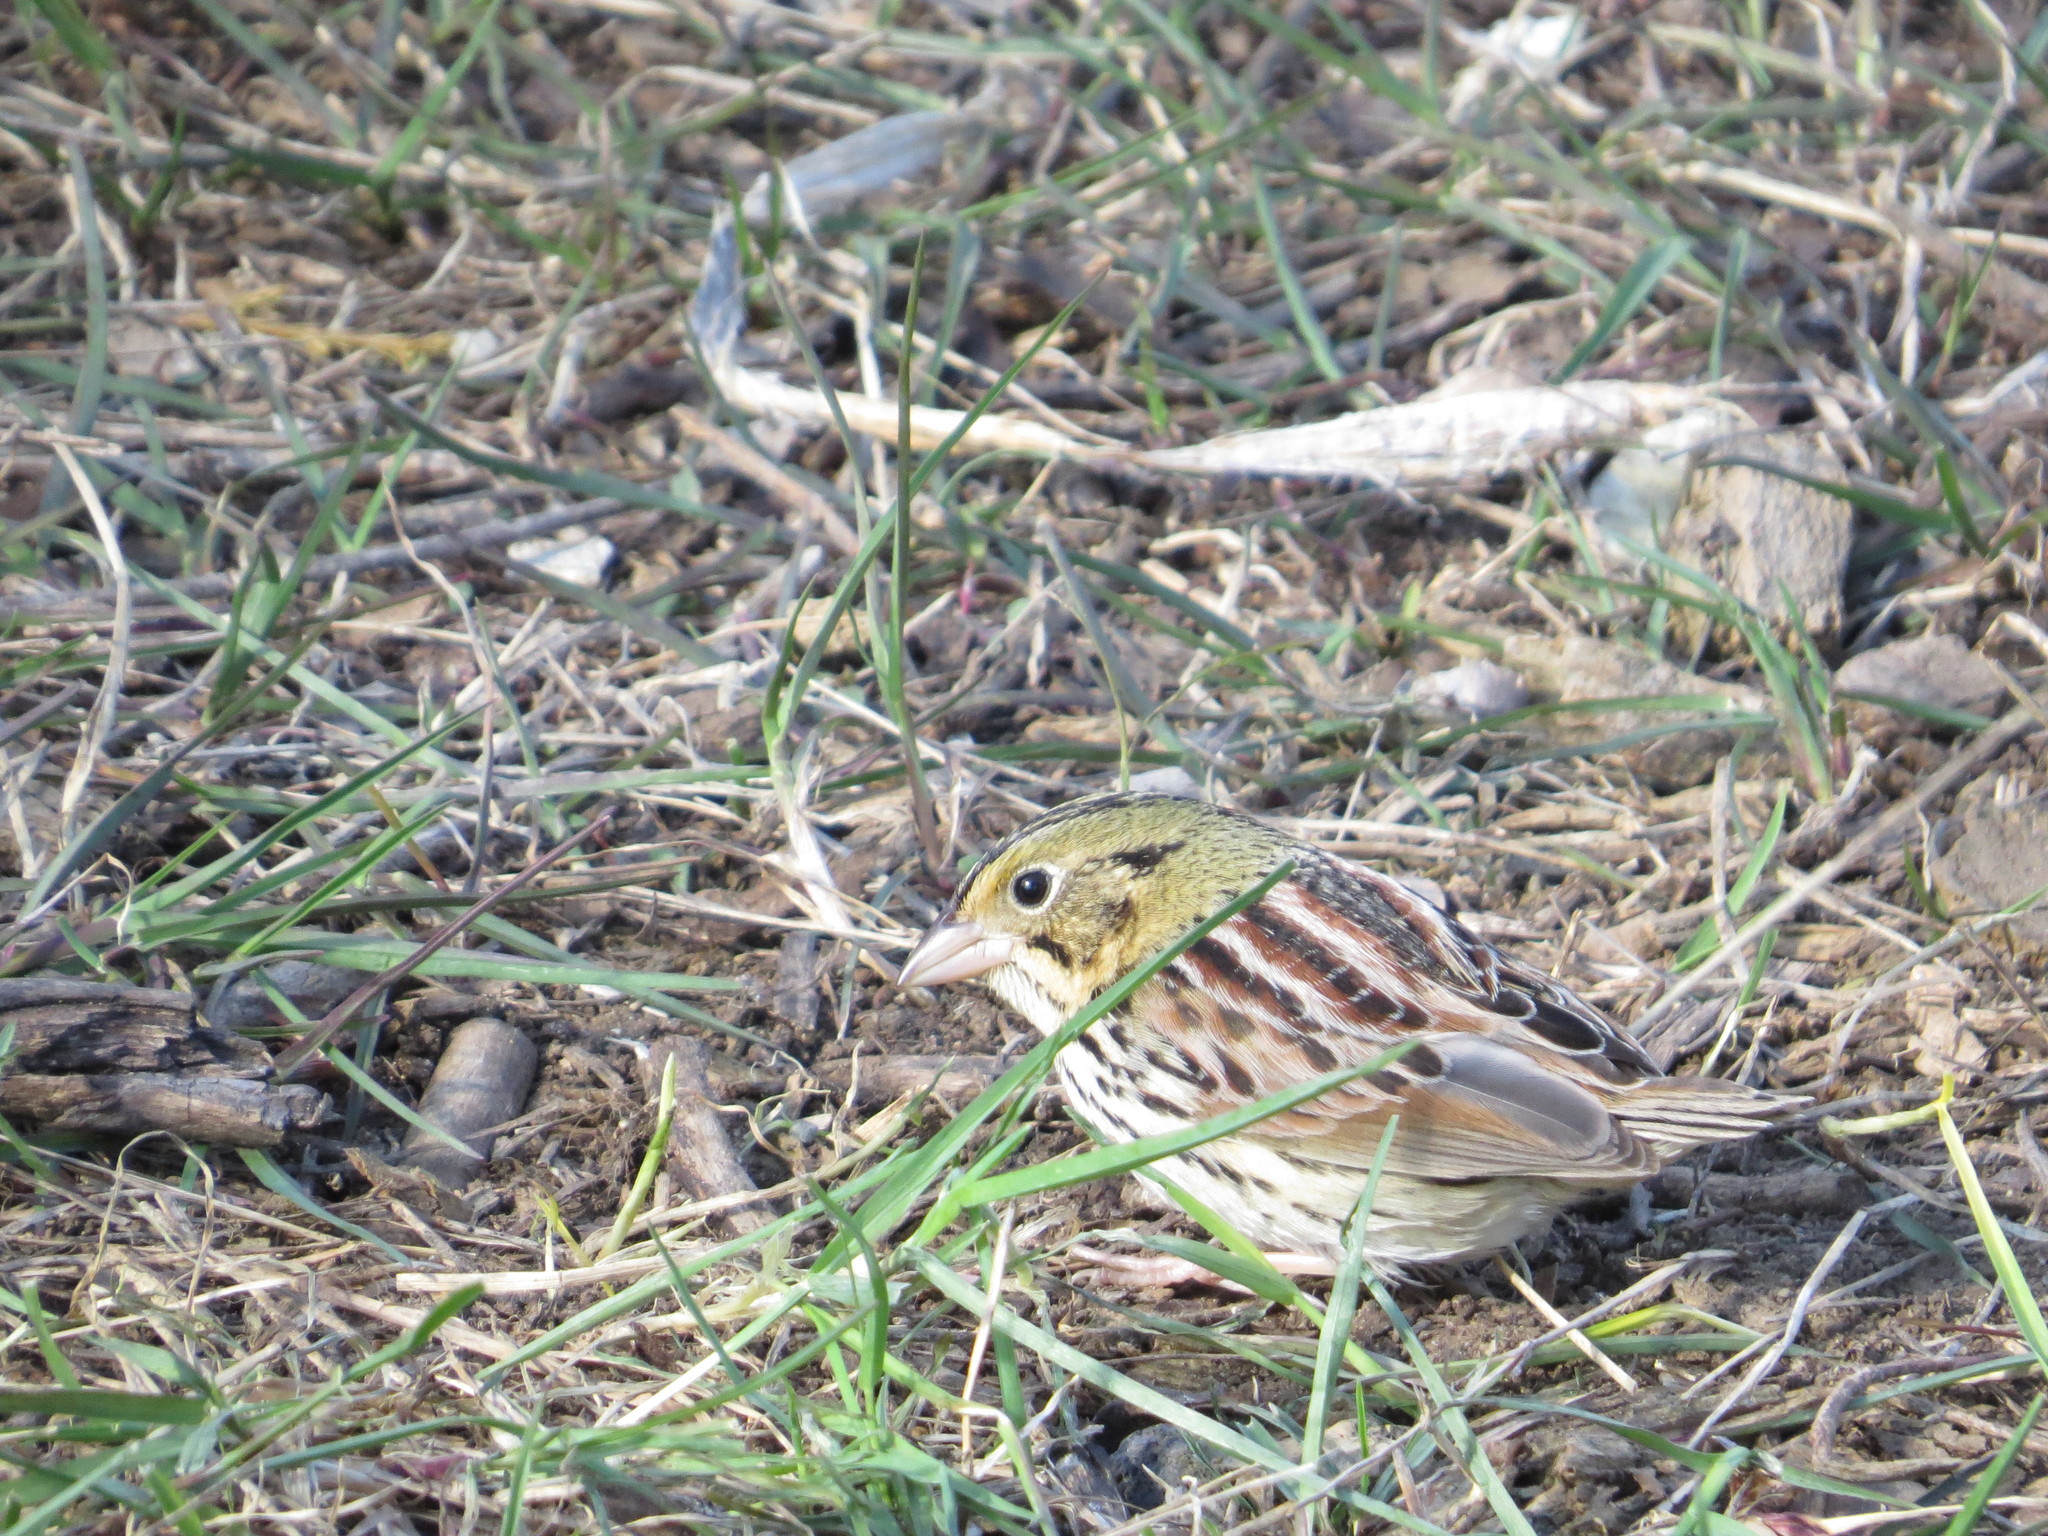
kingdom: Animalia
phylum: Chordata
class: Aves
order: Passeriformes
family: Passerellidae
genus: Centronyx
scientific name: Centronyx henslowii
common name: Henslow's sparrow
